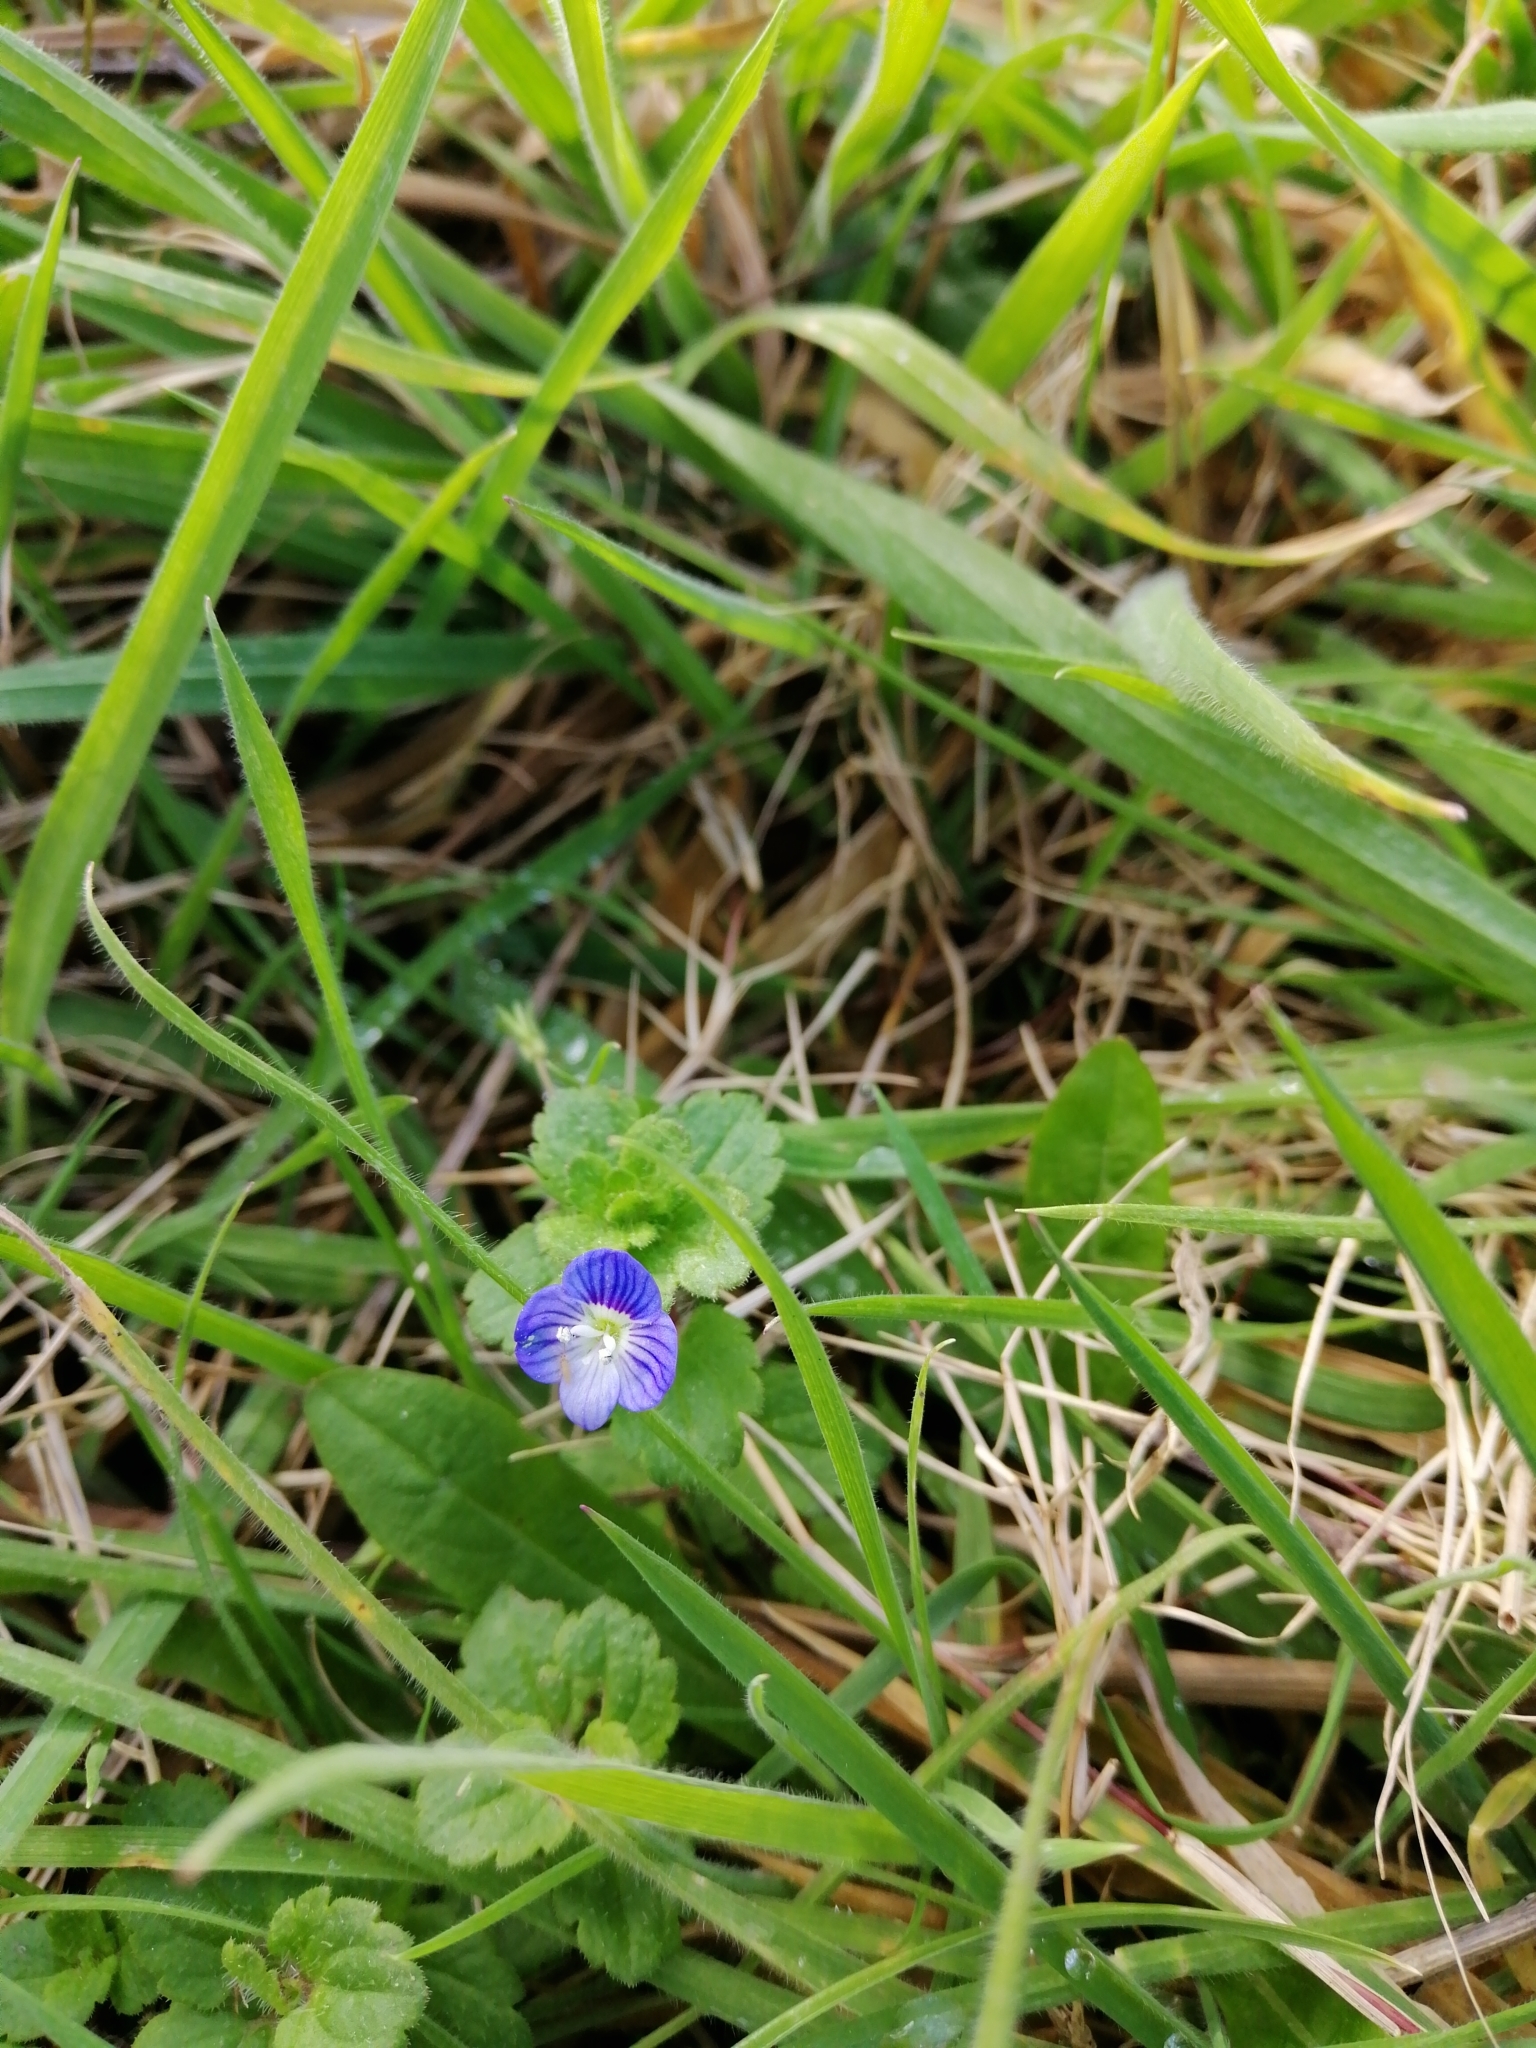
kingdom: Plantae
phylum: Tracheophyta
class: Magnoliopsida
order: Lamiales
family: Plantaginaceae
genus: Veronica
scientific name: Veronica persica
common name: Common field-speedwell
